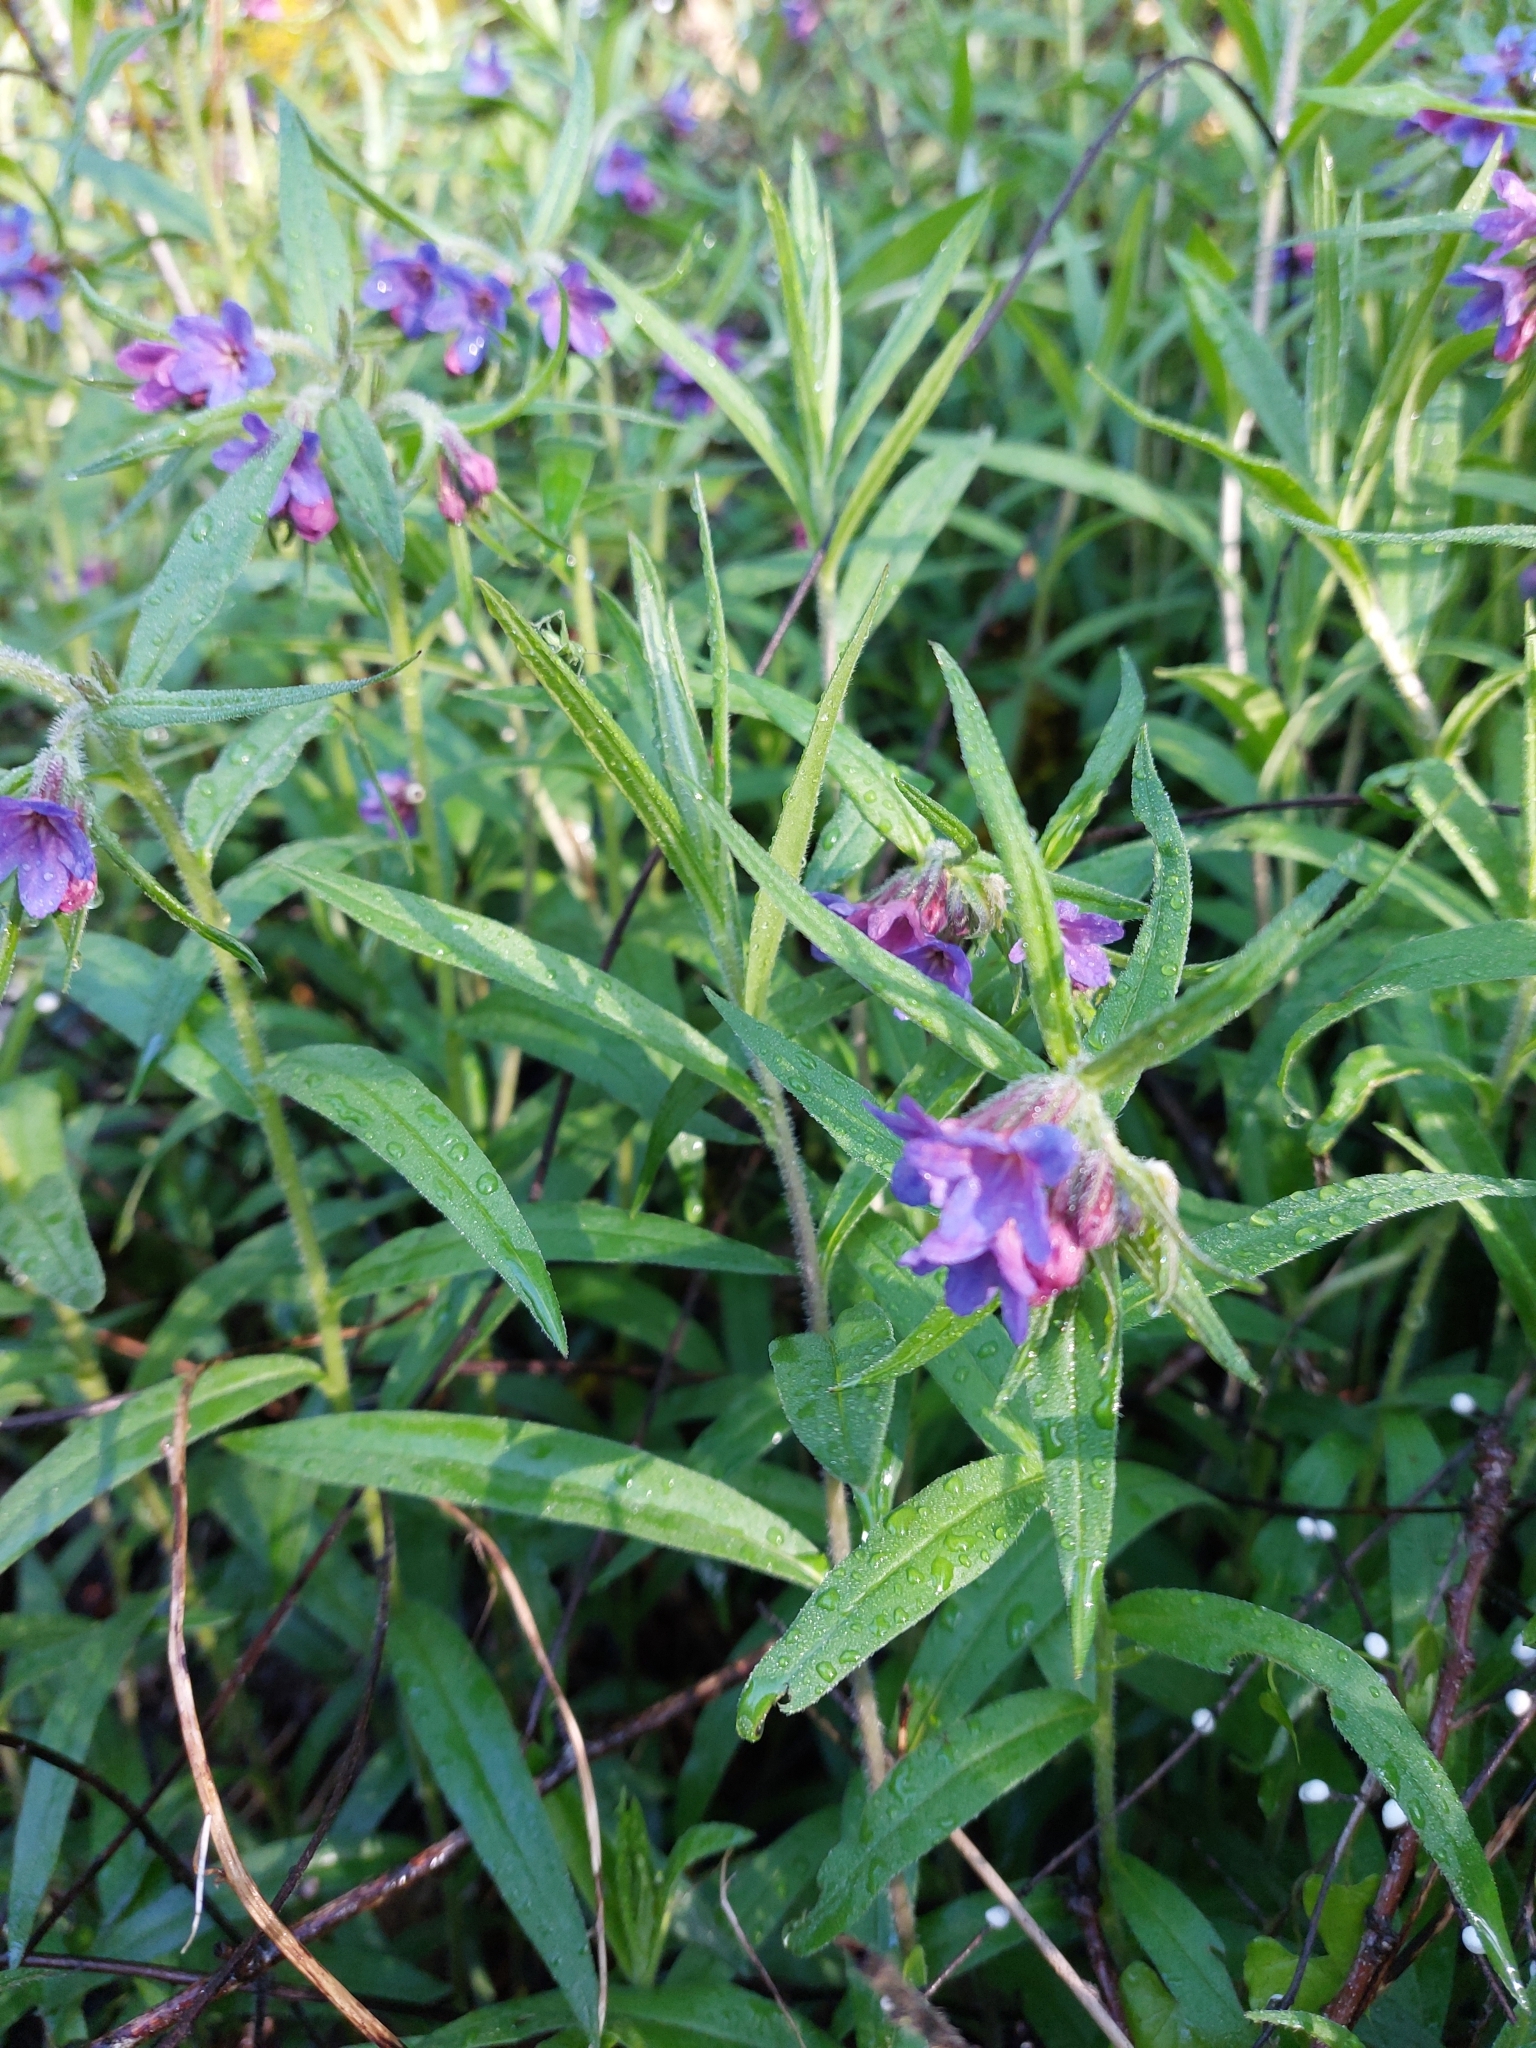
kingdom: Plantae
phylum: Tracheophyta
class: Magnoliopsida
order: Boraginales
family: Boraginaceae
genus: Aegonychon
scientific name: Aegonychon purpurocaeruleum
